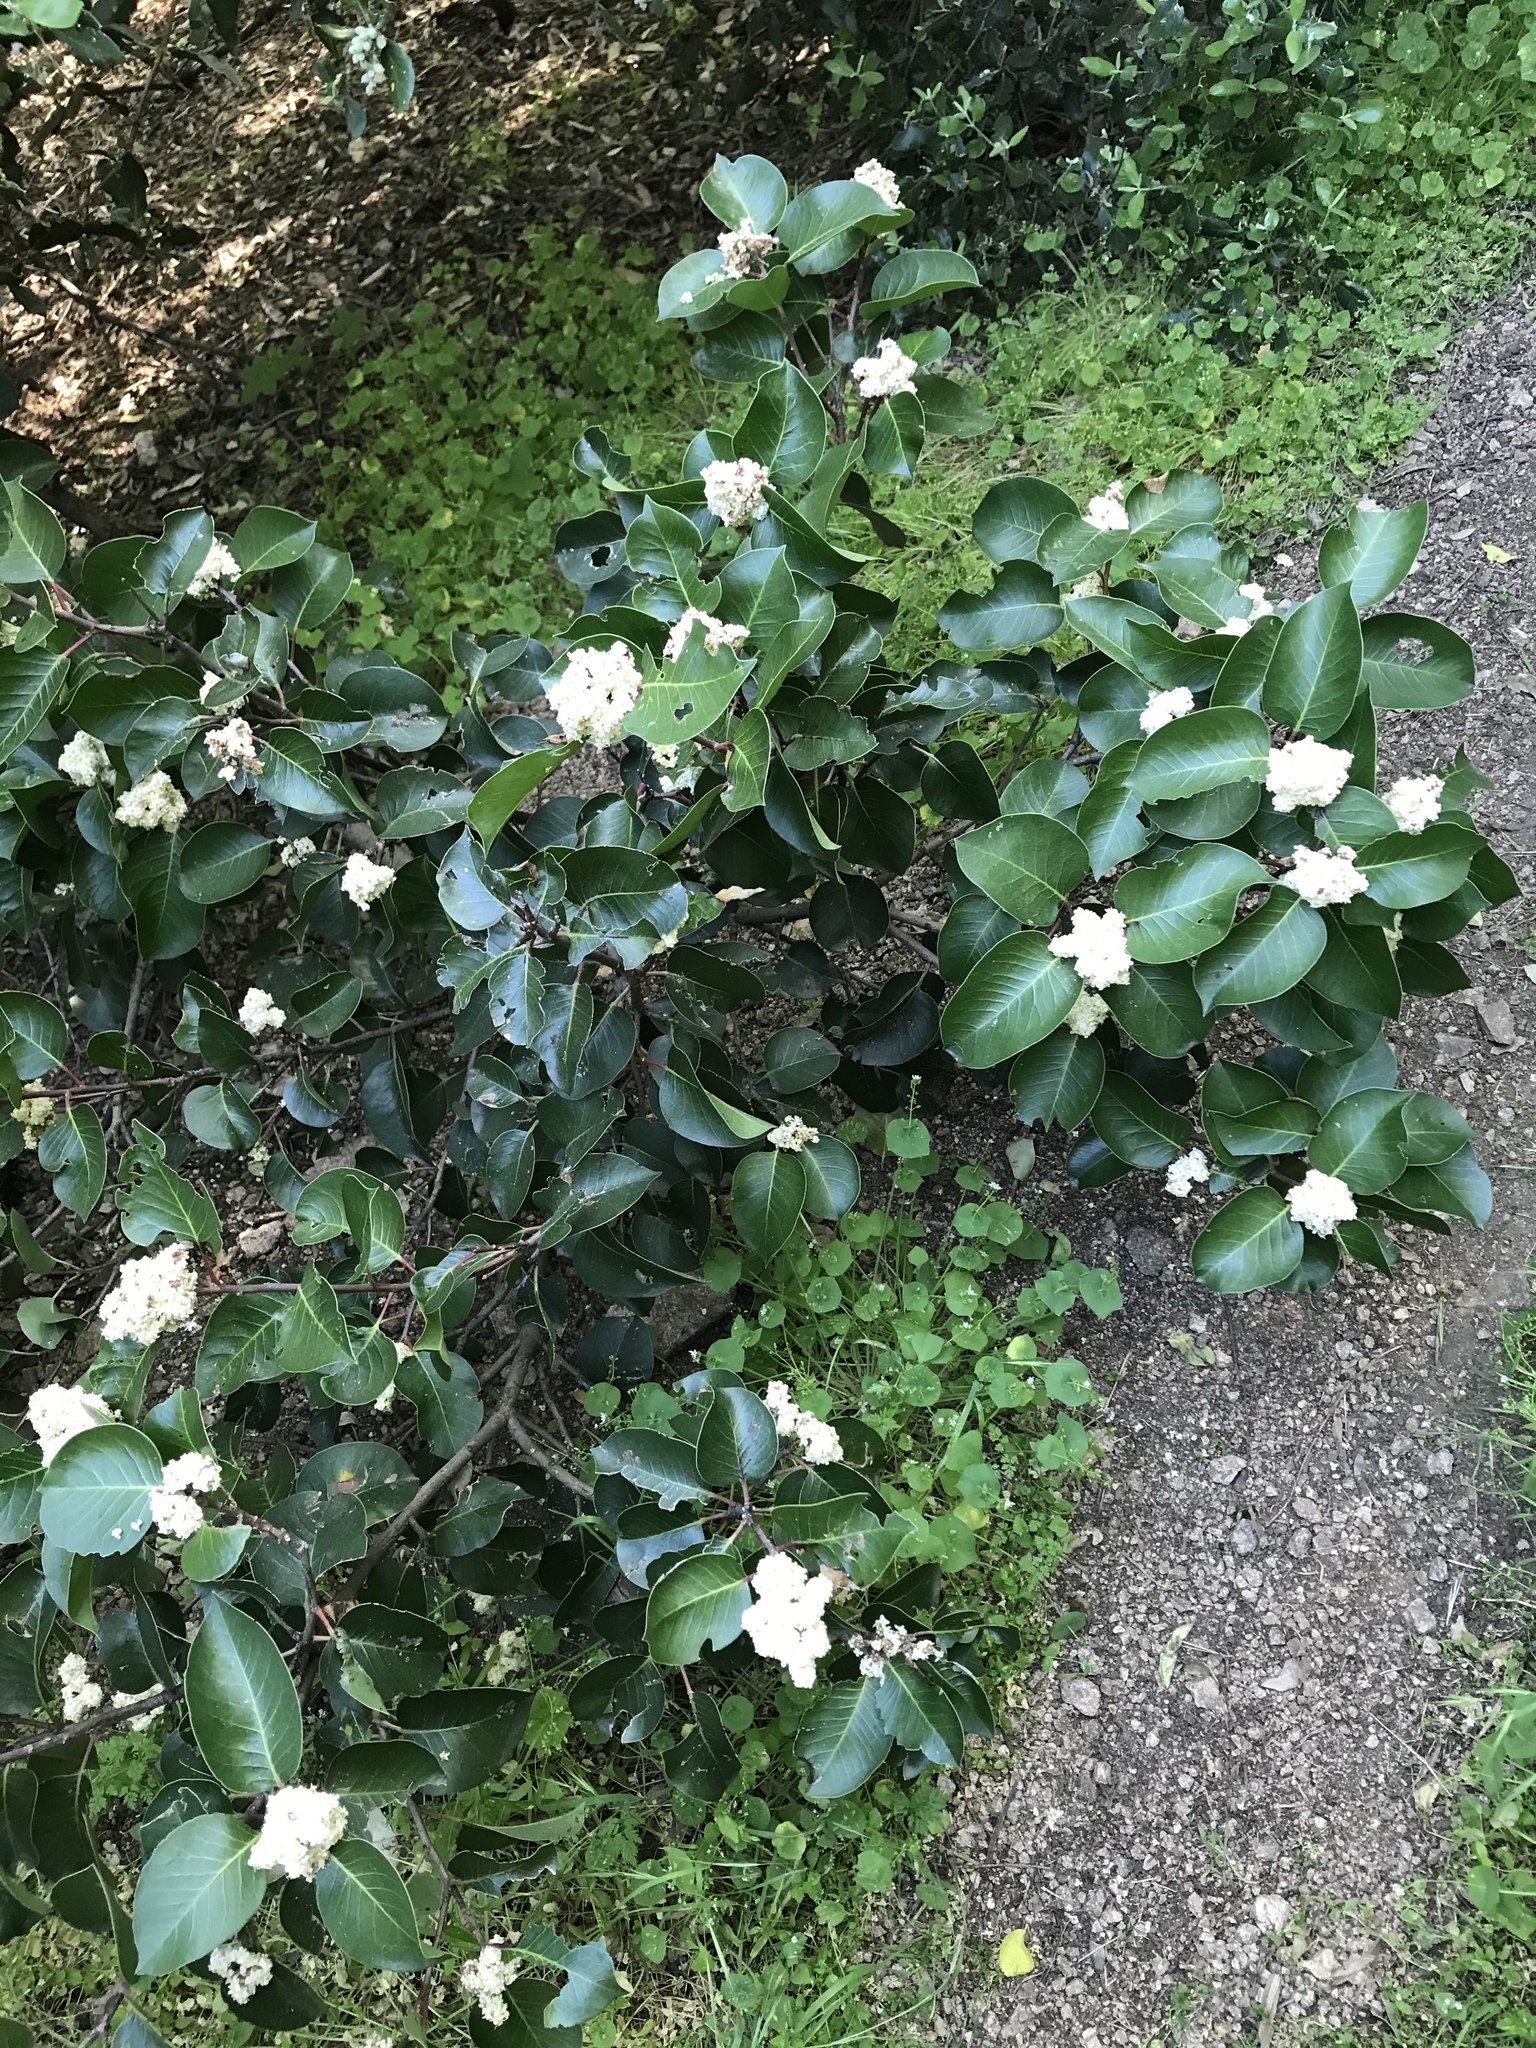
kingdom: Plantae
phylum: Tracheophyta
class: Magnoliopsida
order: Sapindales
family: Anacardiaceae
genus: Rhus
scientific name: Rhus ovata
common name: Sugar sumac
